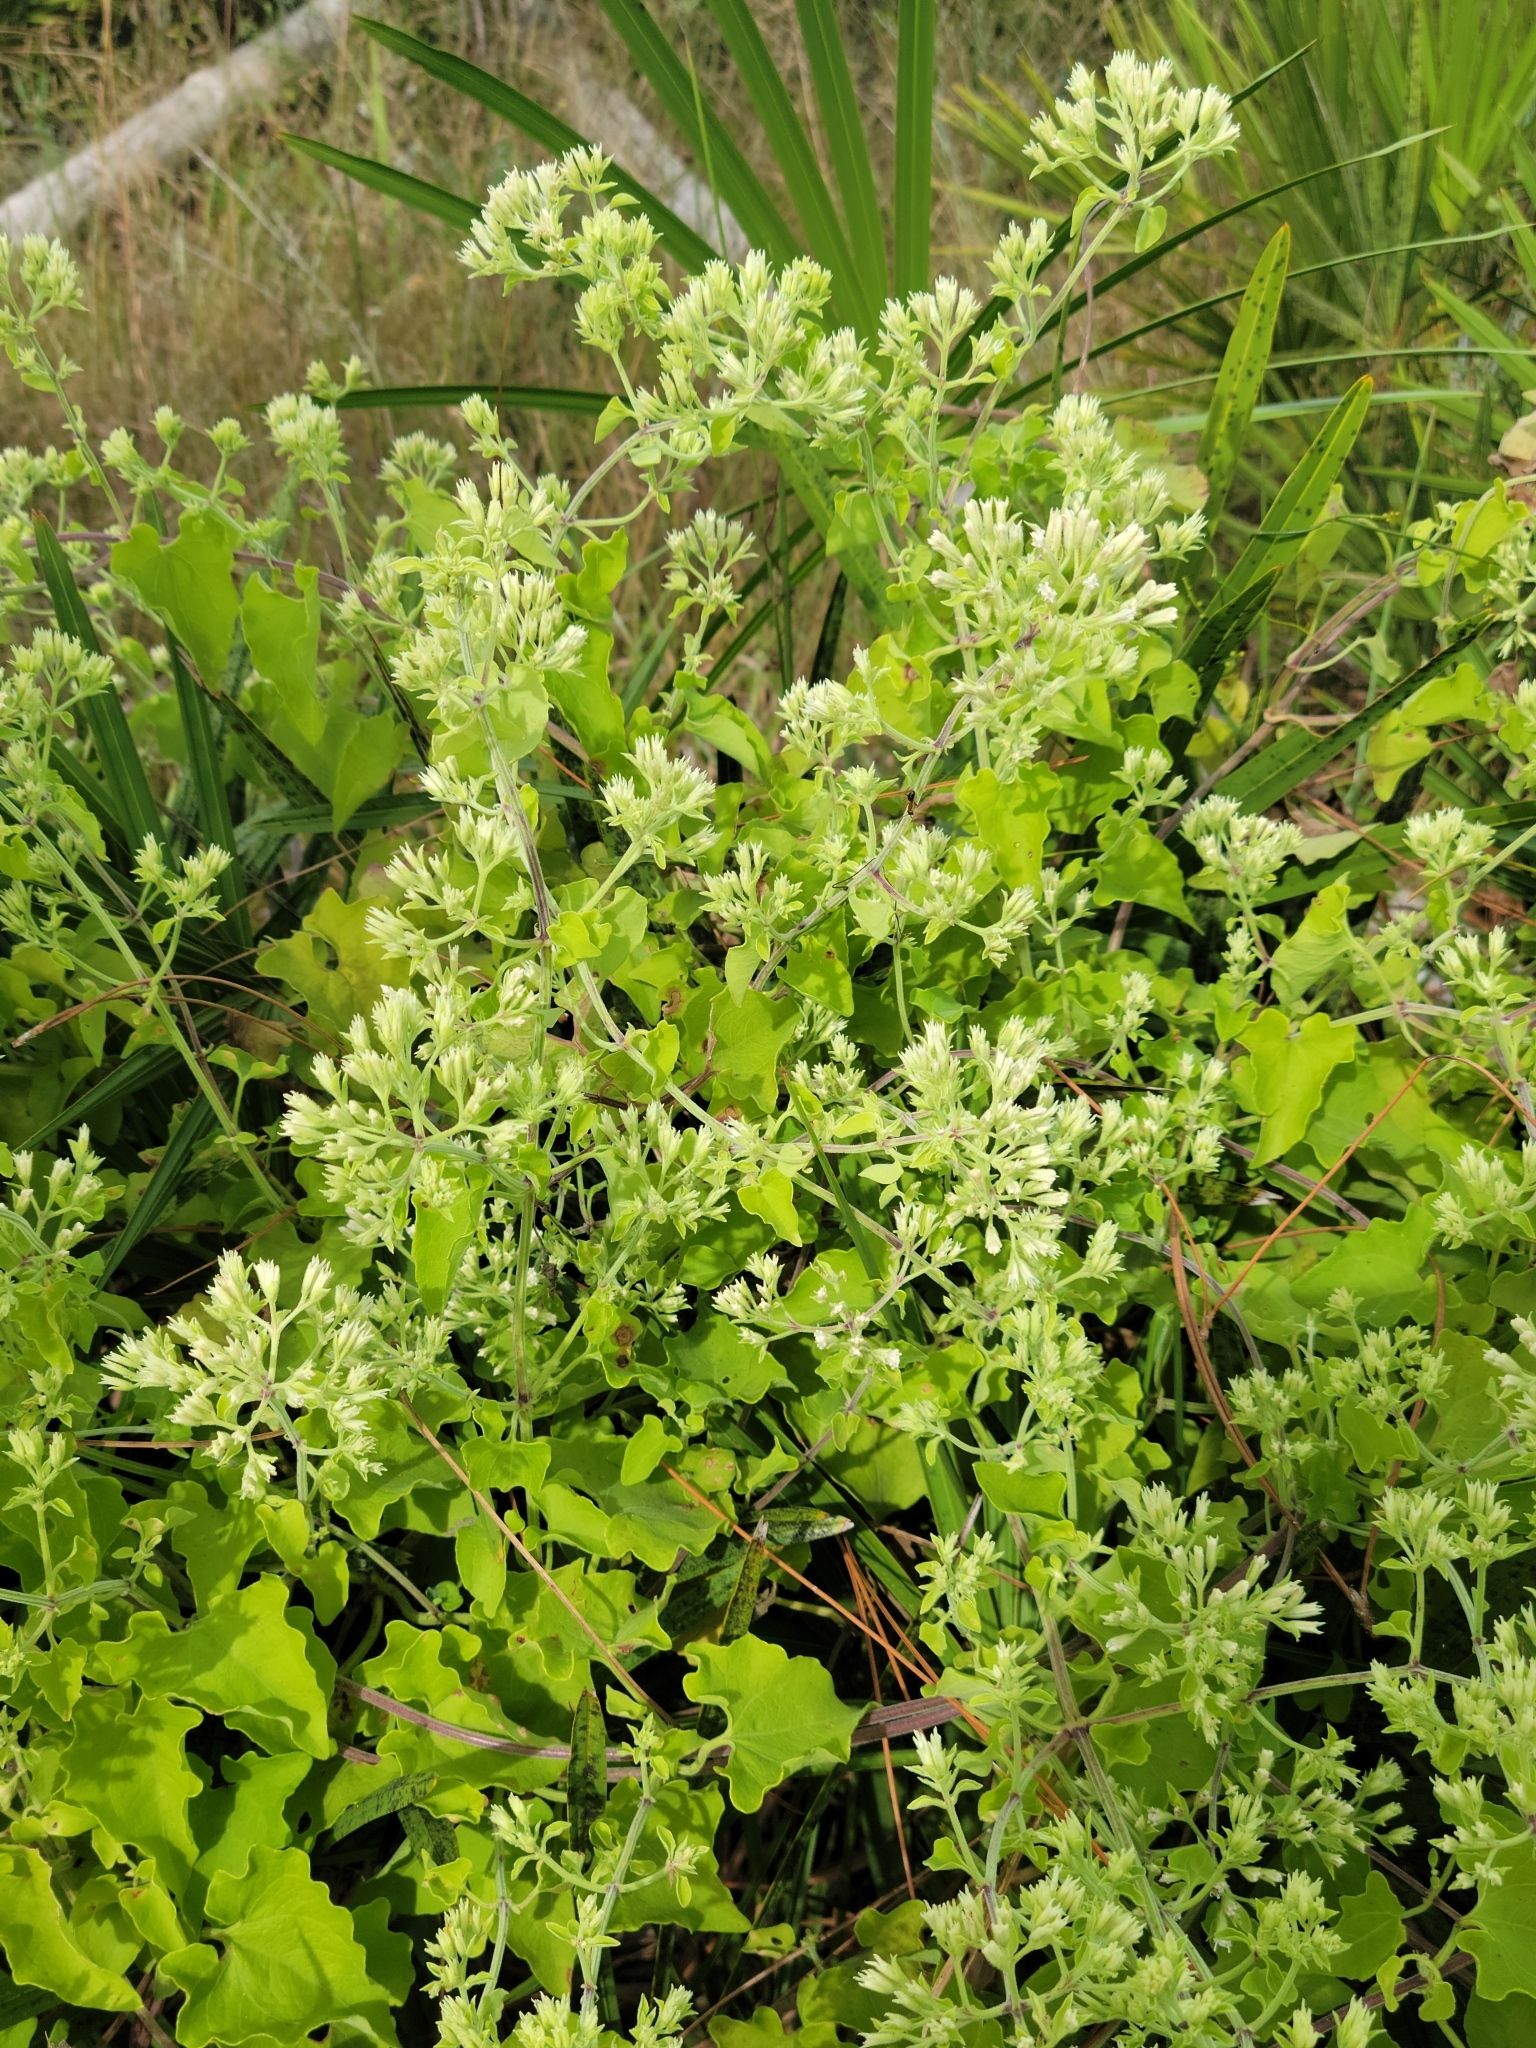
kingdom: Plantae
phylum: Tracheophyta
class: Magnoliopsida
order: Asterales
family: Asteraceae
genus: Mikania
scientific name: Mikania cordifolia
